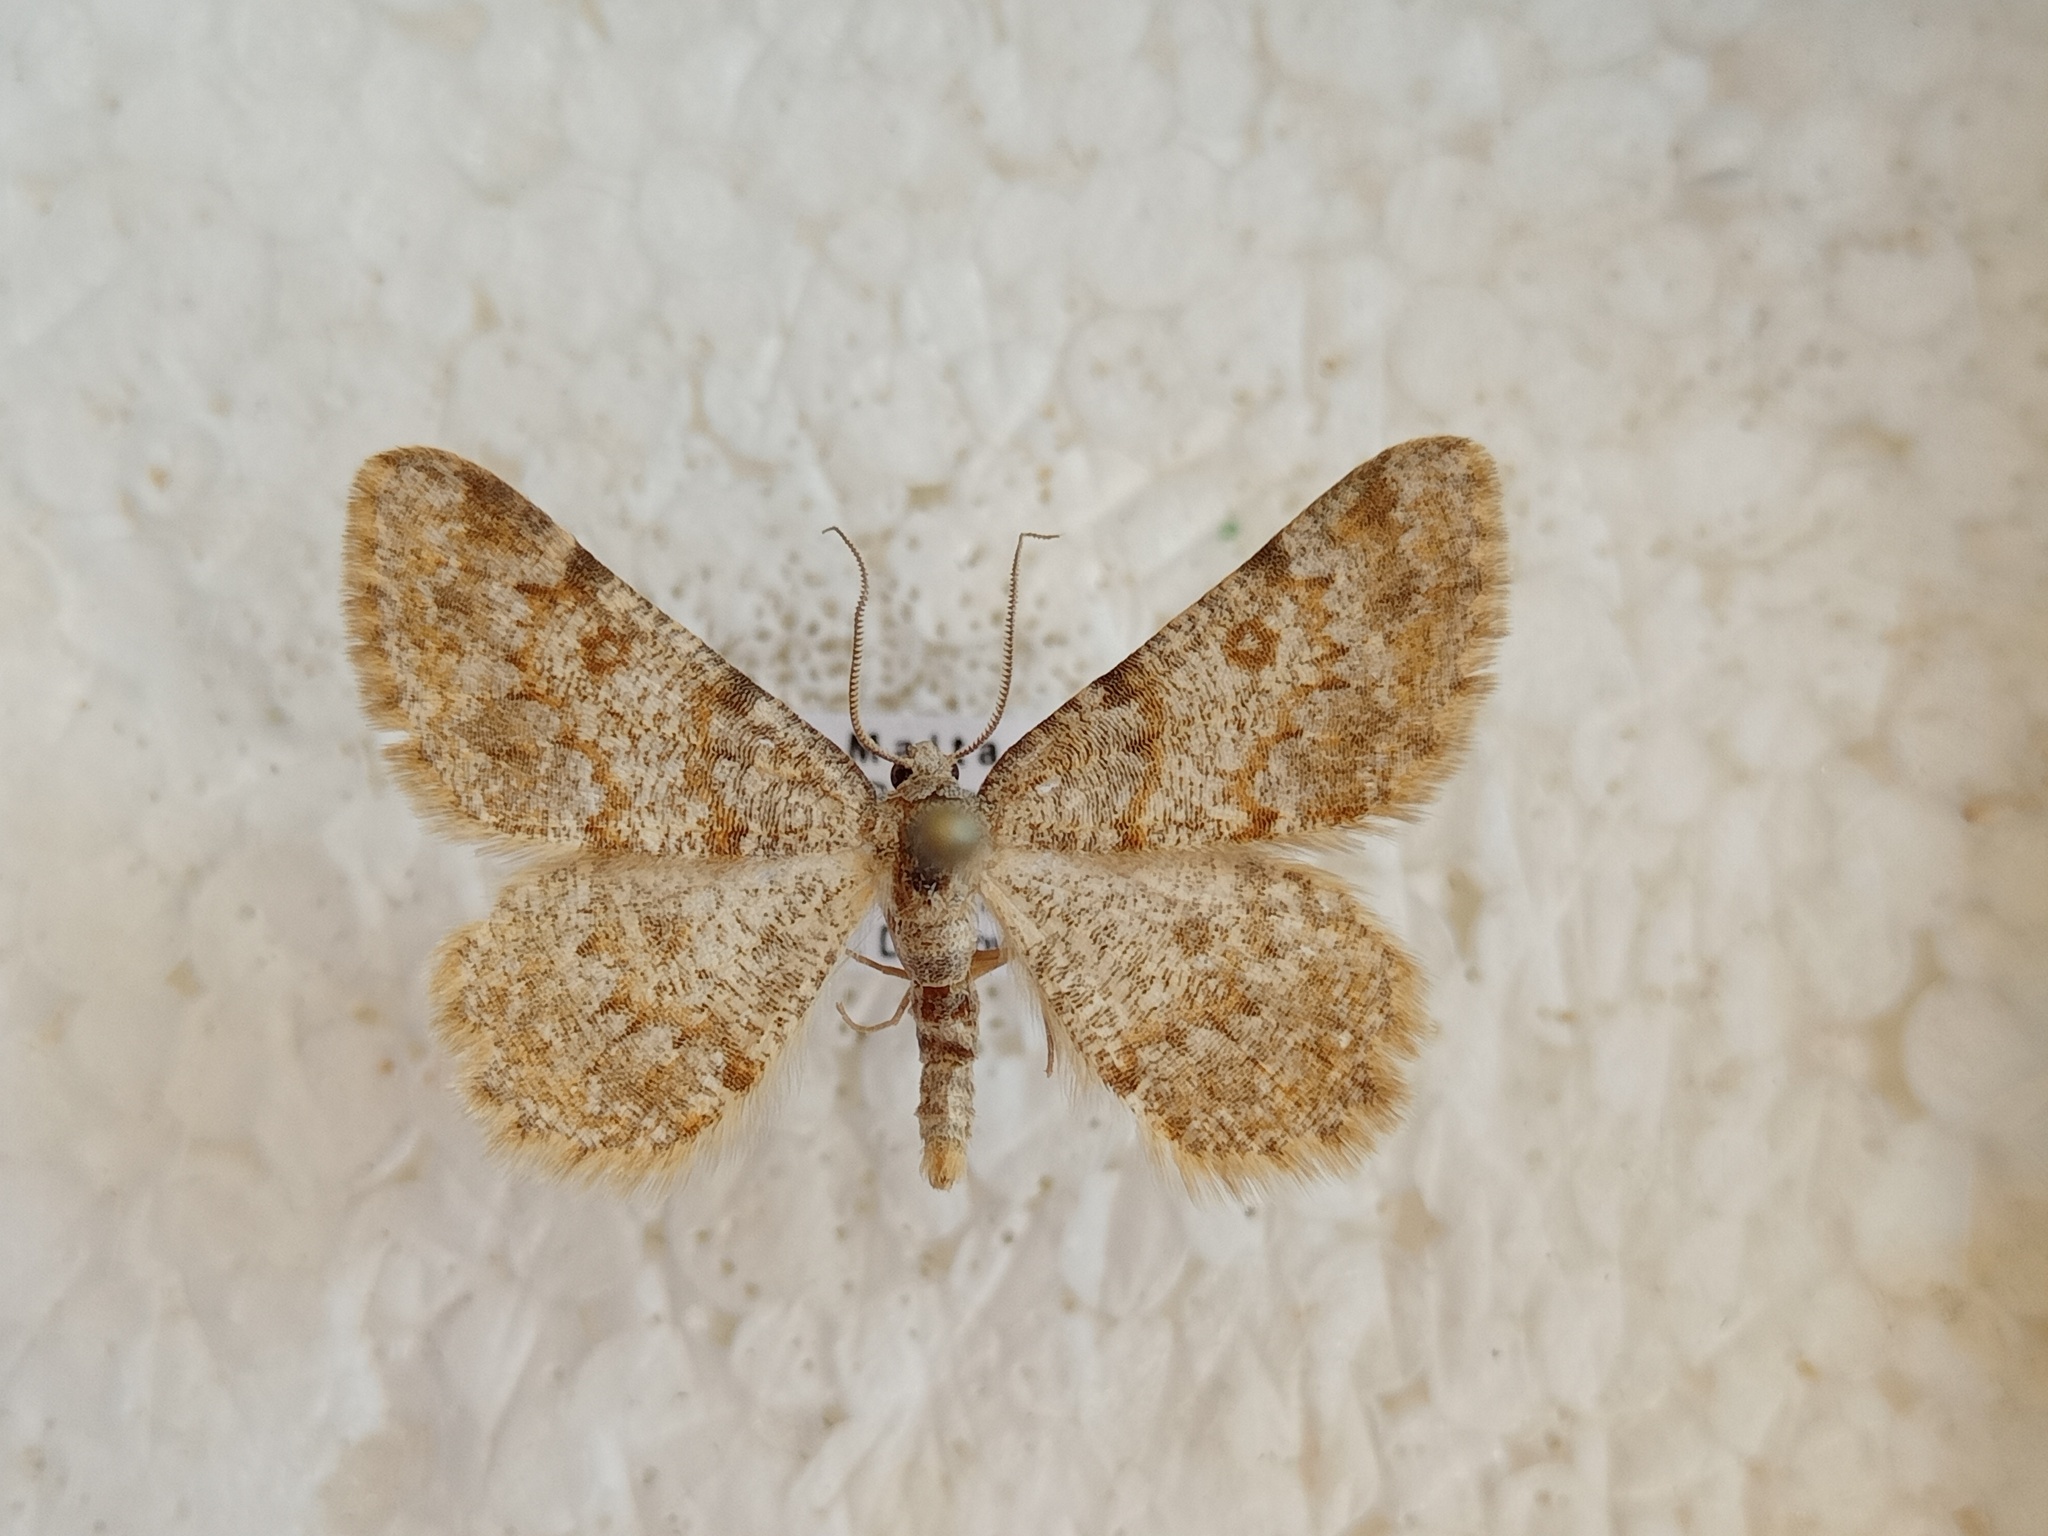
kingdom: Animalia
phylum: Arthropoda
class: Insecta
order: Lepidoptera
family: Geometridae
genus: Charissa
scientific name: Charissa mucidaria
